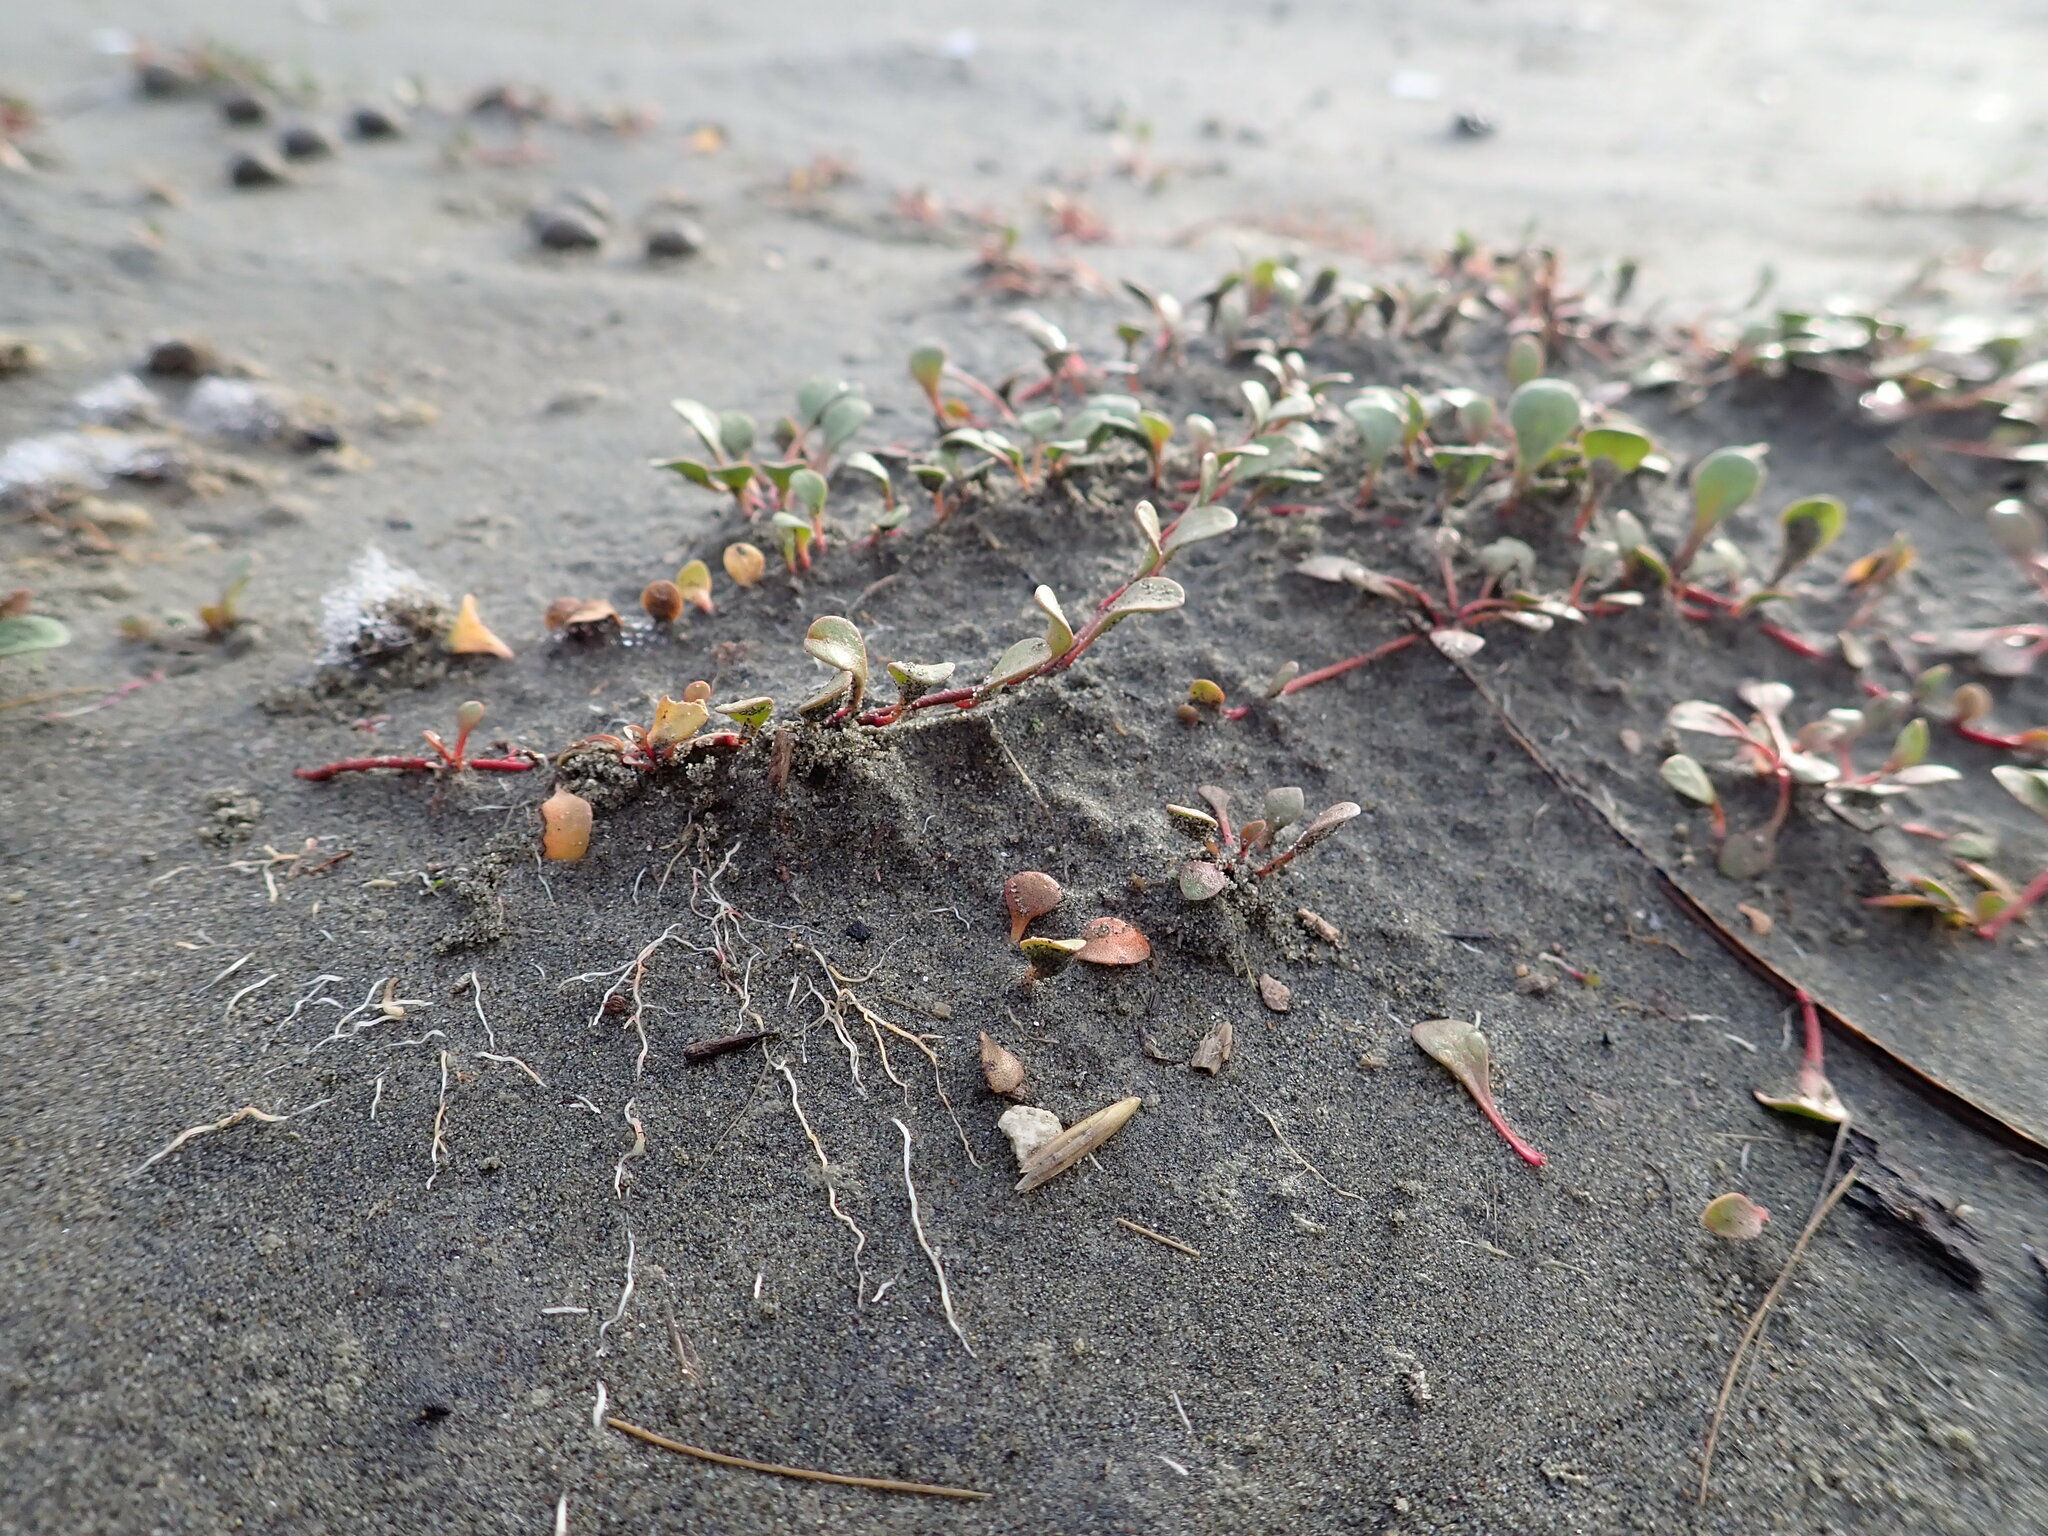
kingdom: Plantae
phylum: Tracheophyta
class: Magnoliopsida
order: Ericales
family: Primulaceae
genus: Samolus
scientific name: Samolus repens
